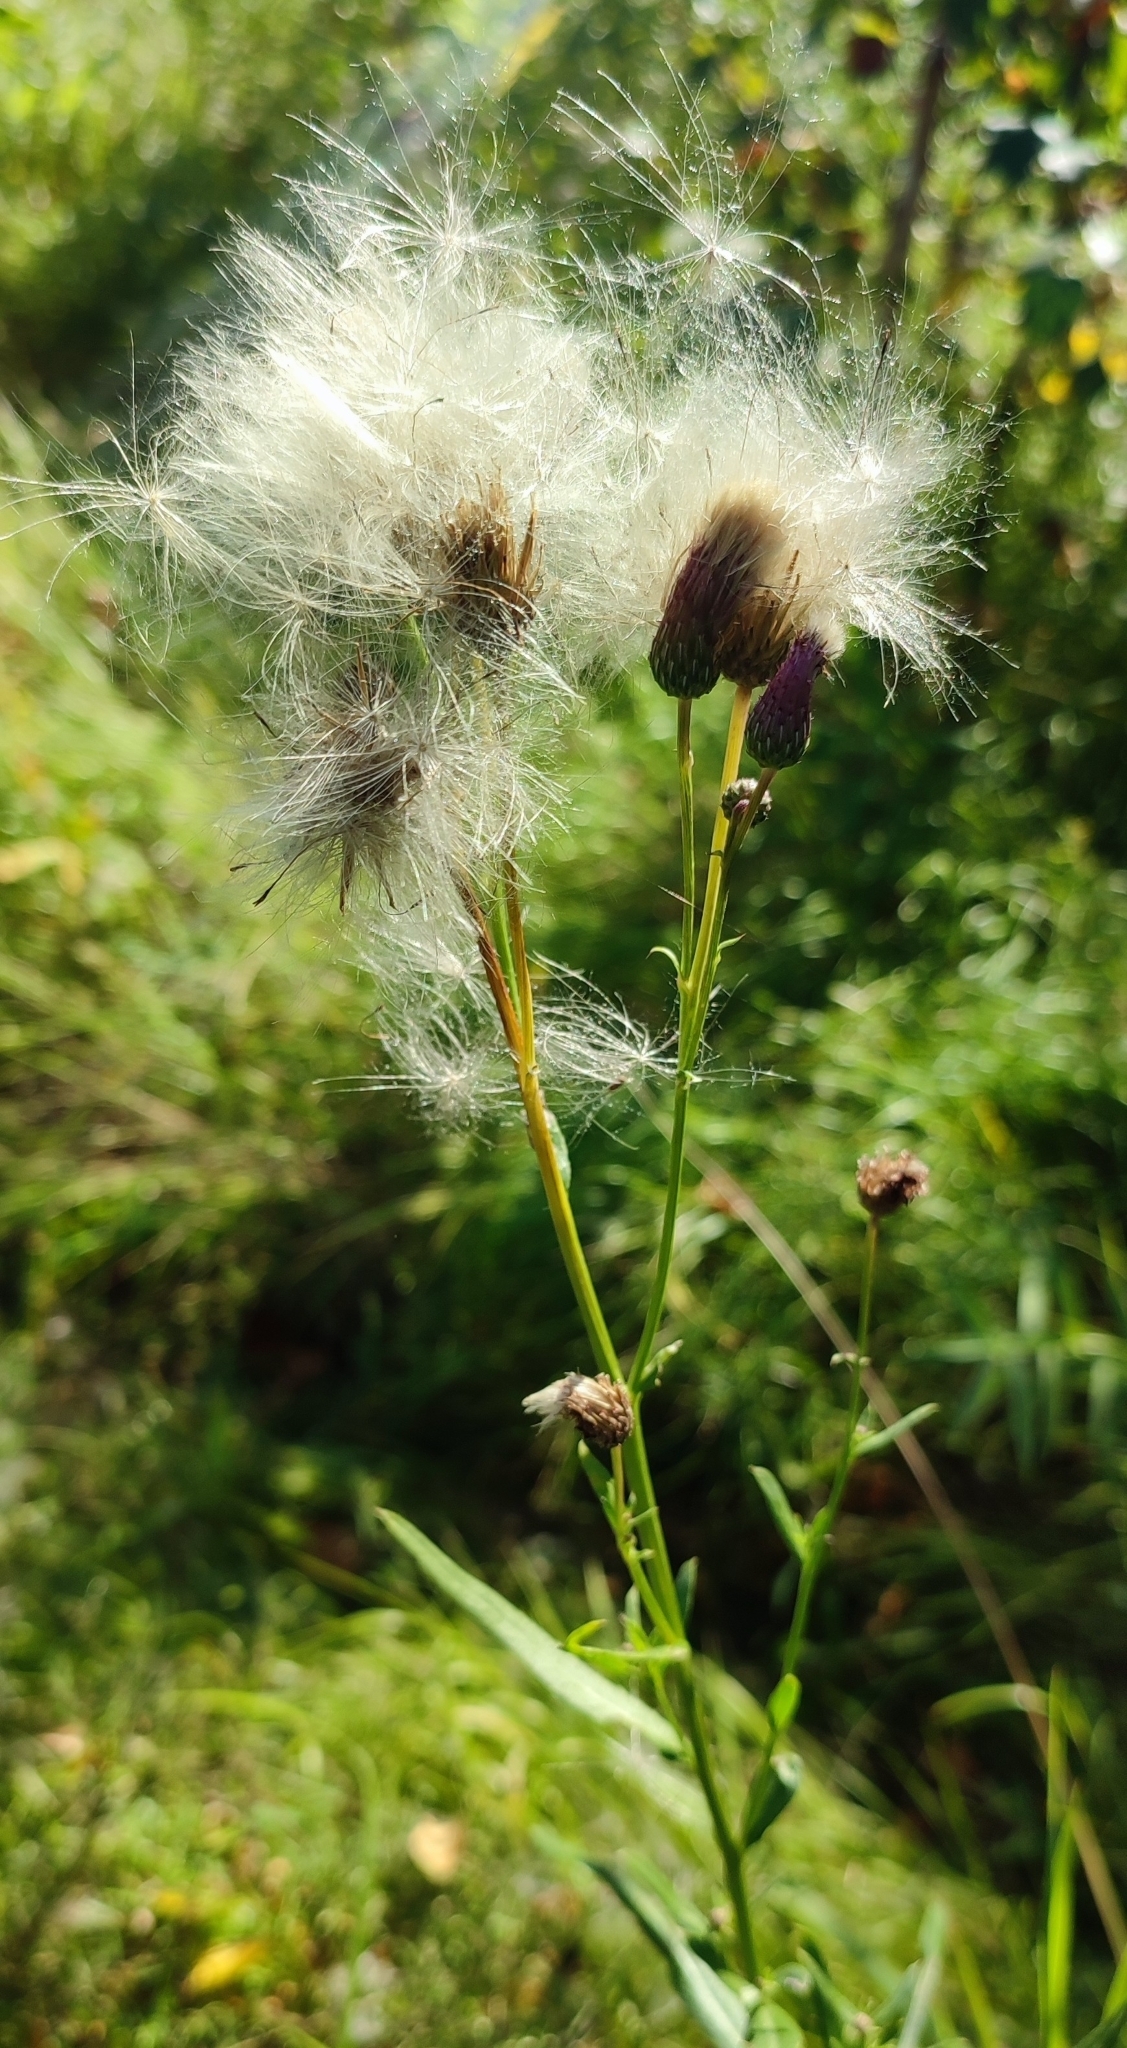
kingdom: Plantae
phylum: Tracheophyta
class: Magnoliopsida
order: Asterales
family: Asteraceae
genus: Cirsium
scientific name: Cirsium arvense
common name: Creeping thistle
